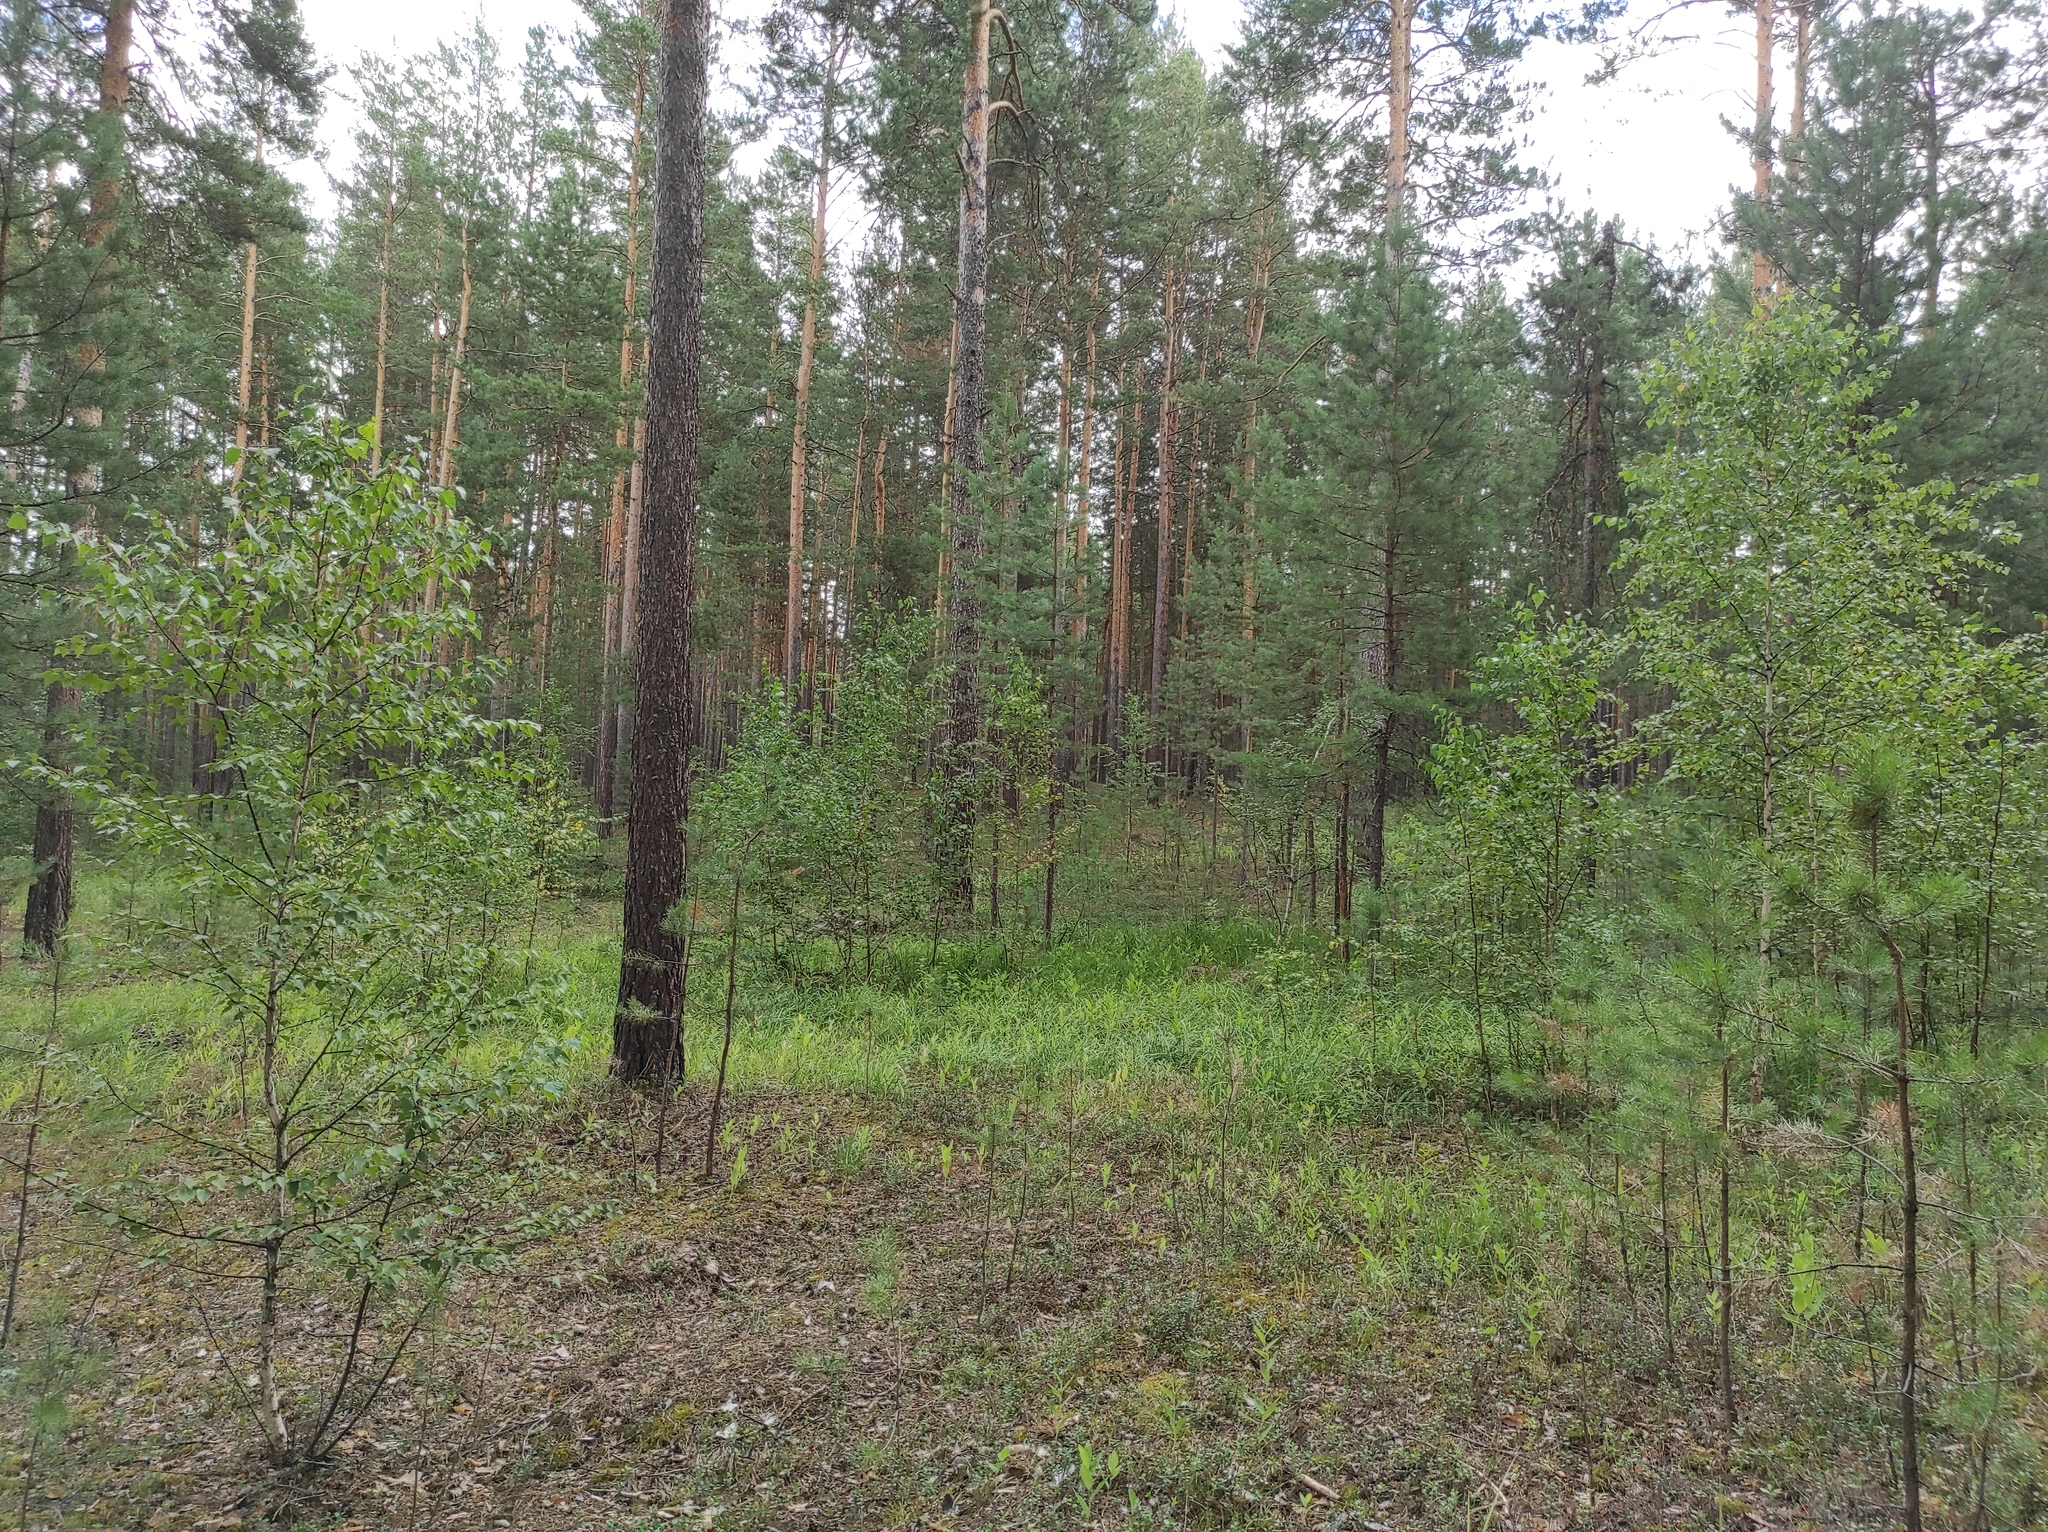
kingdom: Plantae
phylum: Tracheophyta
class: Magnoliopsida
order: Fagales
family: Betulaceae
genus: Betula
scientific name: Betula pendula
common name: Silver birch
